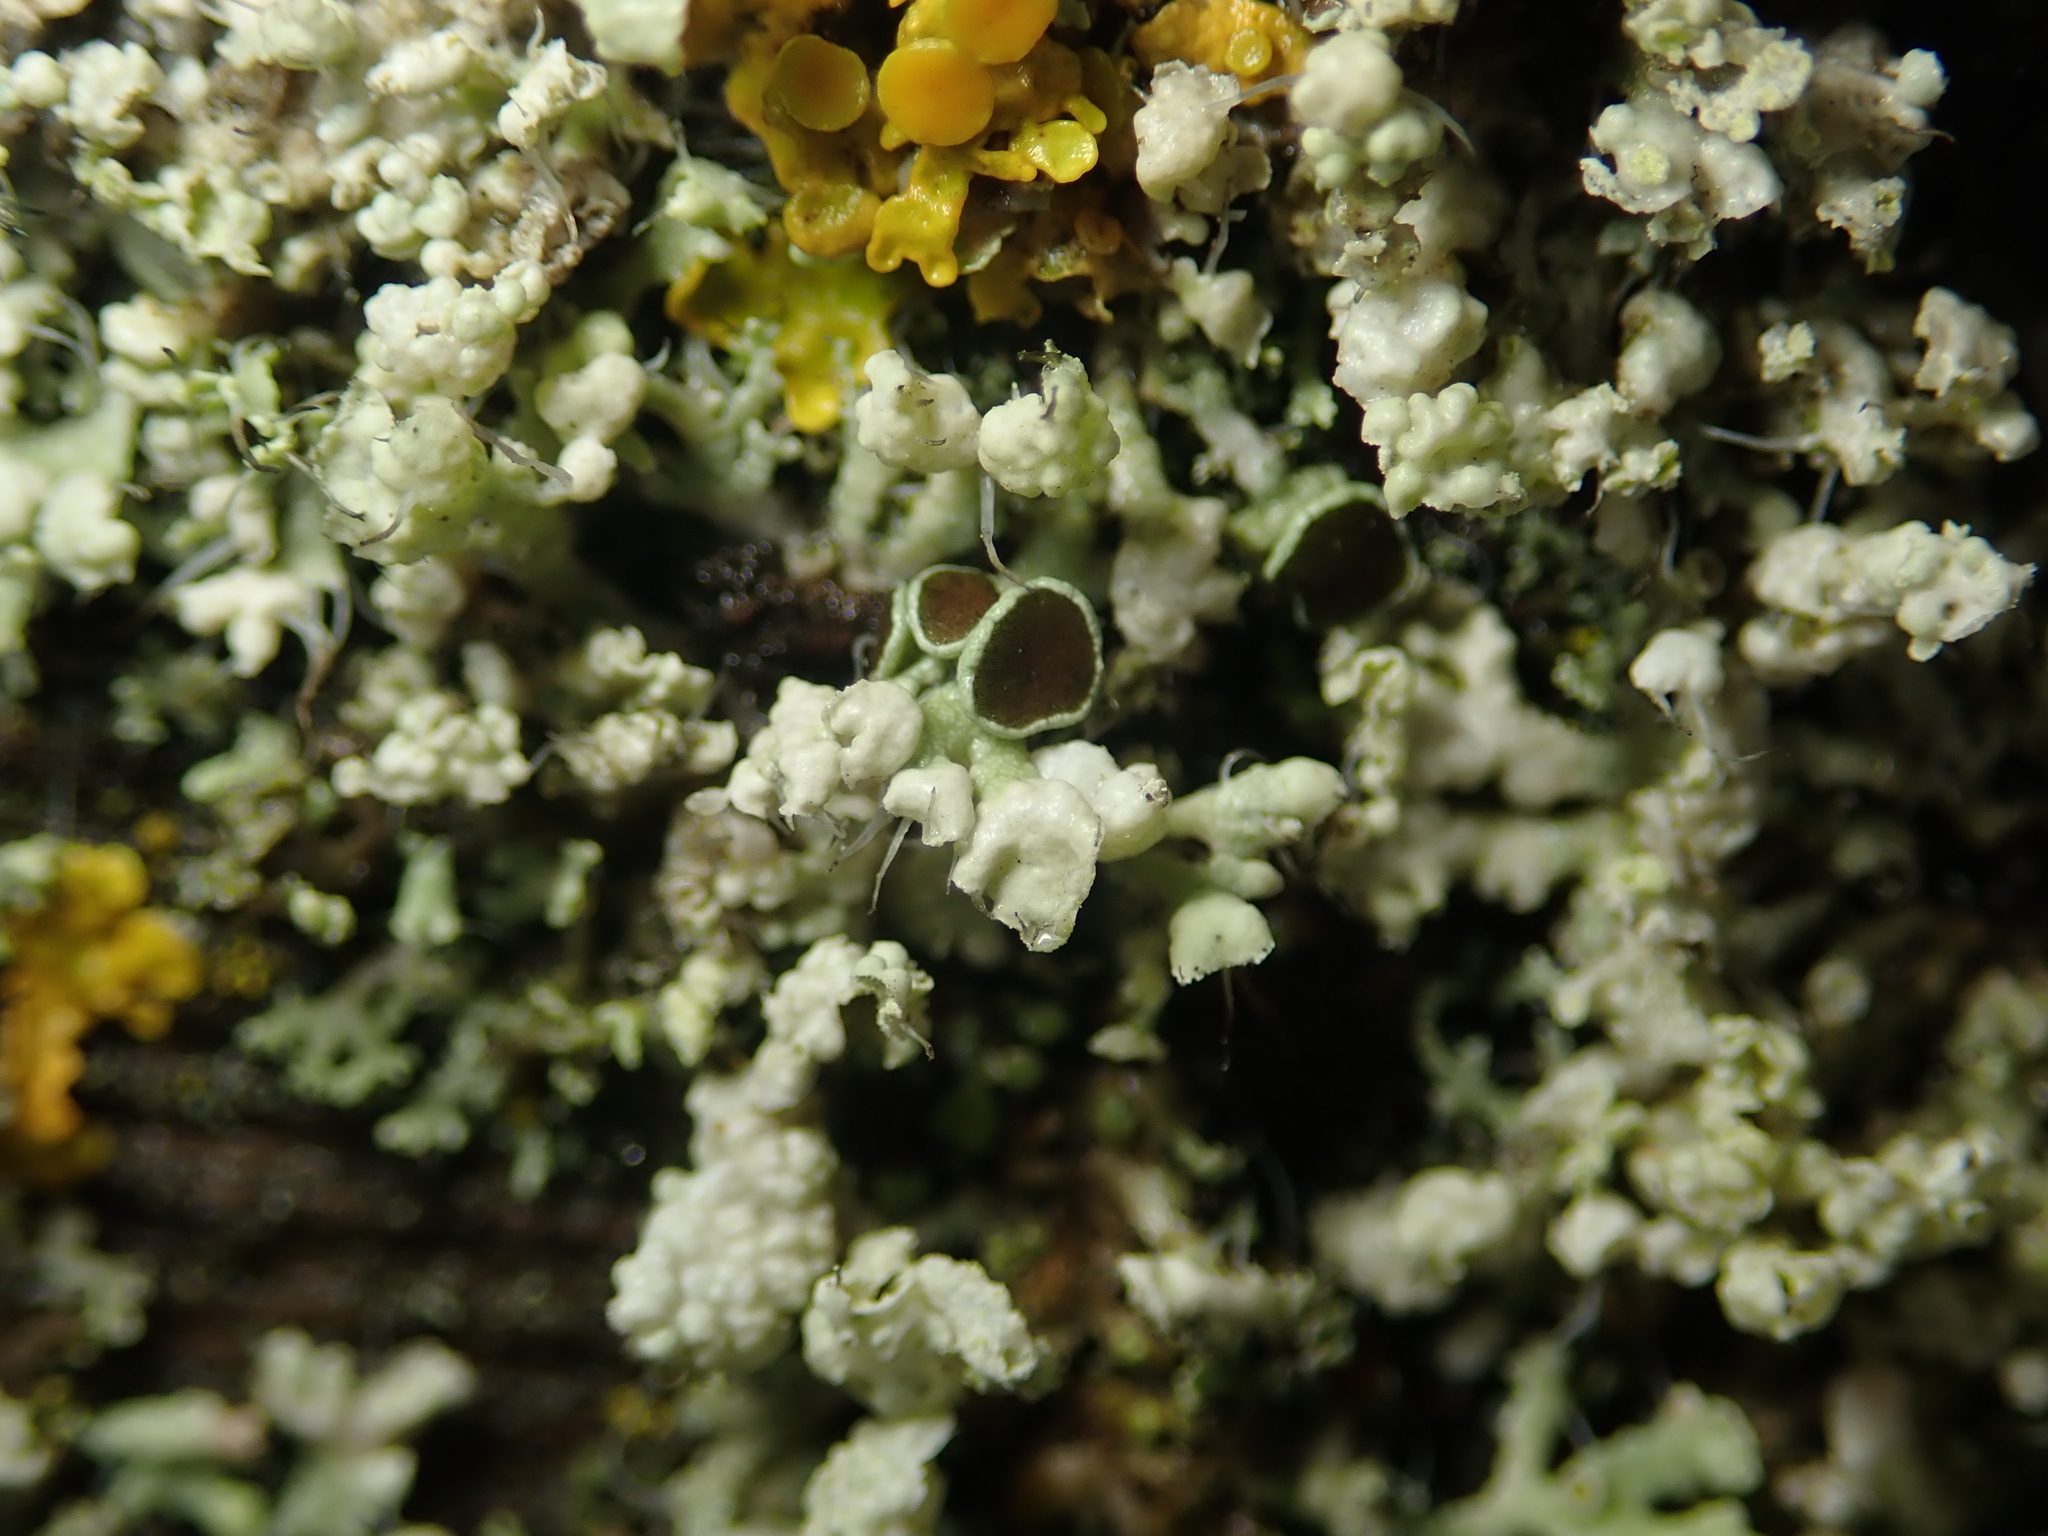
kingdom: Fungi
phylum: Ascomycota
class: Lecanoromycetes
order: Caliciales
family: Physciaceae
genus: Physcia
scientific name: Physcia adscendens
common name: Hooded rosette lichen
